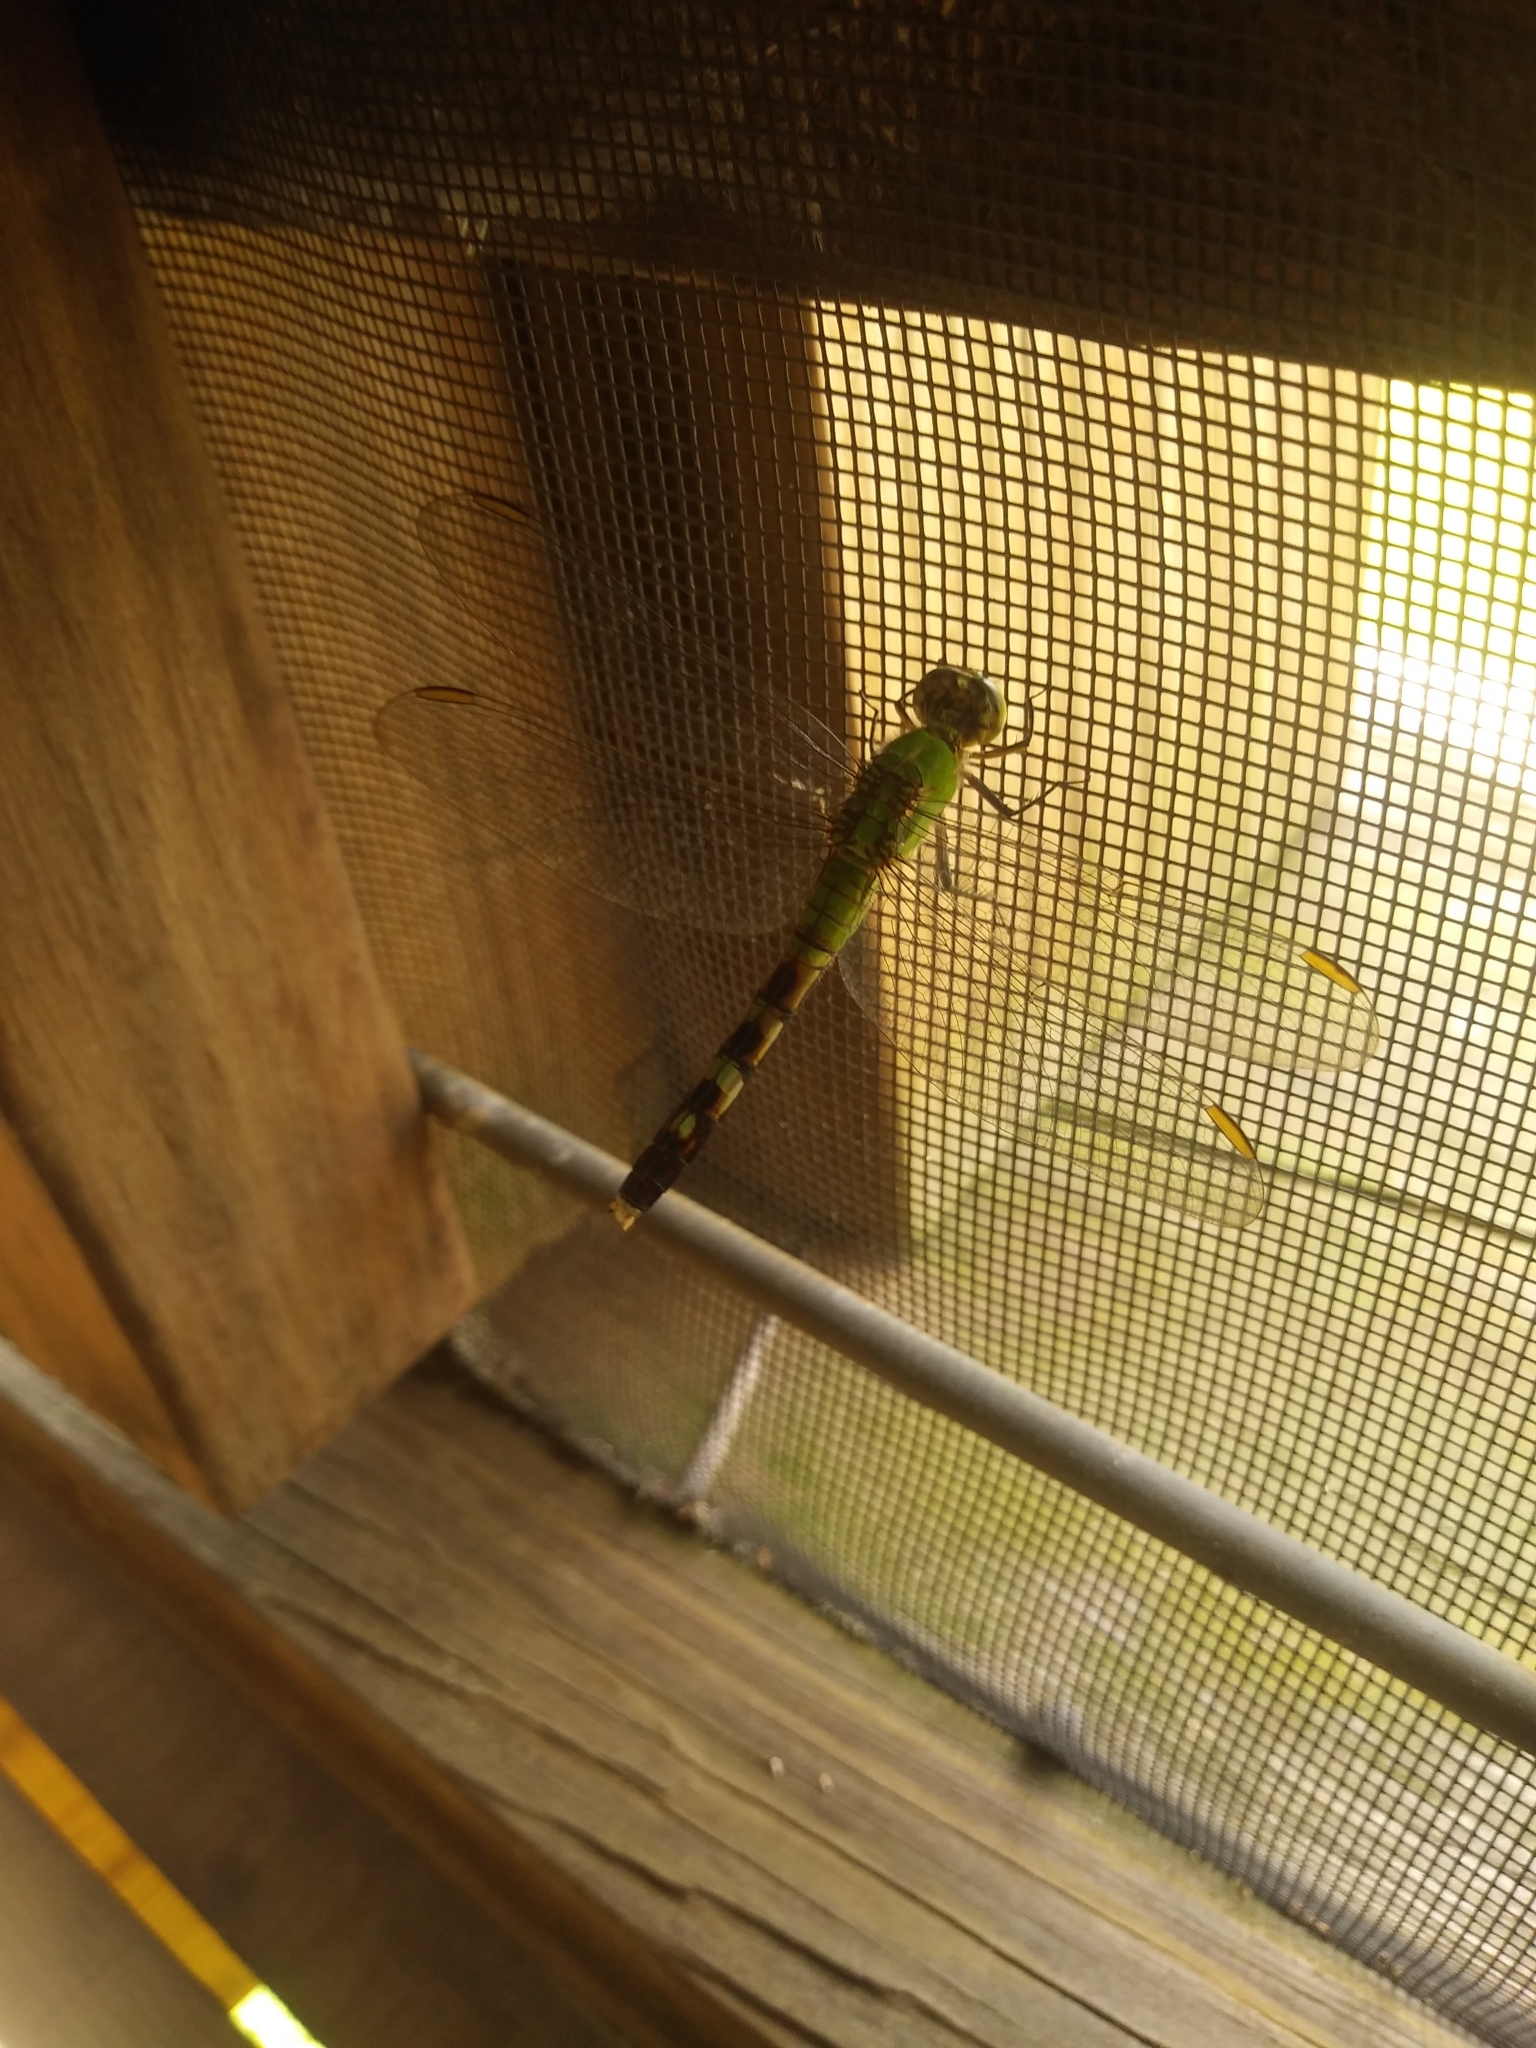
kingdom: Animalia
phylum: Arthropoda
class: Insecta
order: Odonata
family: Libellulidae
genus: Erythemis
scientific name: Erythemis simplicicollis
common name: Eastern pondhawk
